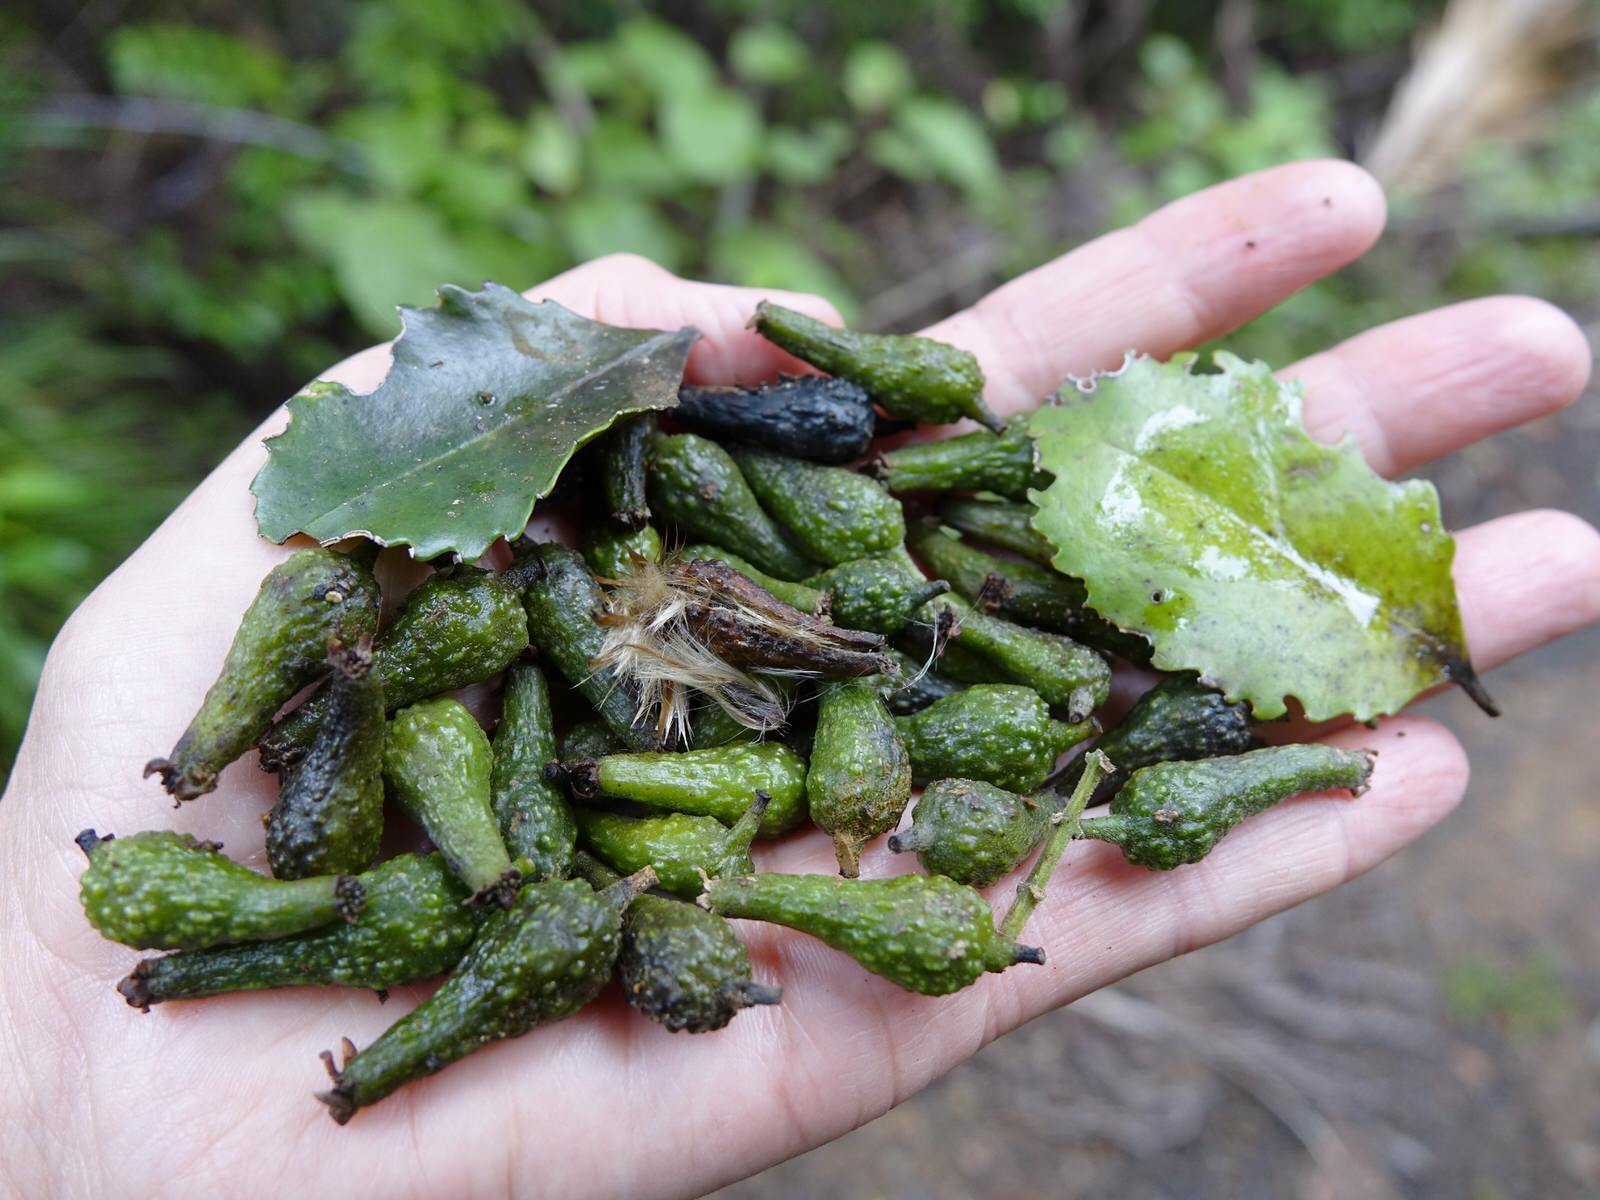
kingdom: Plantae
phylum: Tracheophyta
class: Magnoliopsida
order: Laurales
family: Atherospermataceae
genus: Laurelia
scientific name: Laurelia novae-zelandiae
